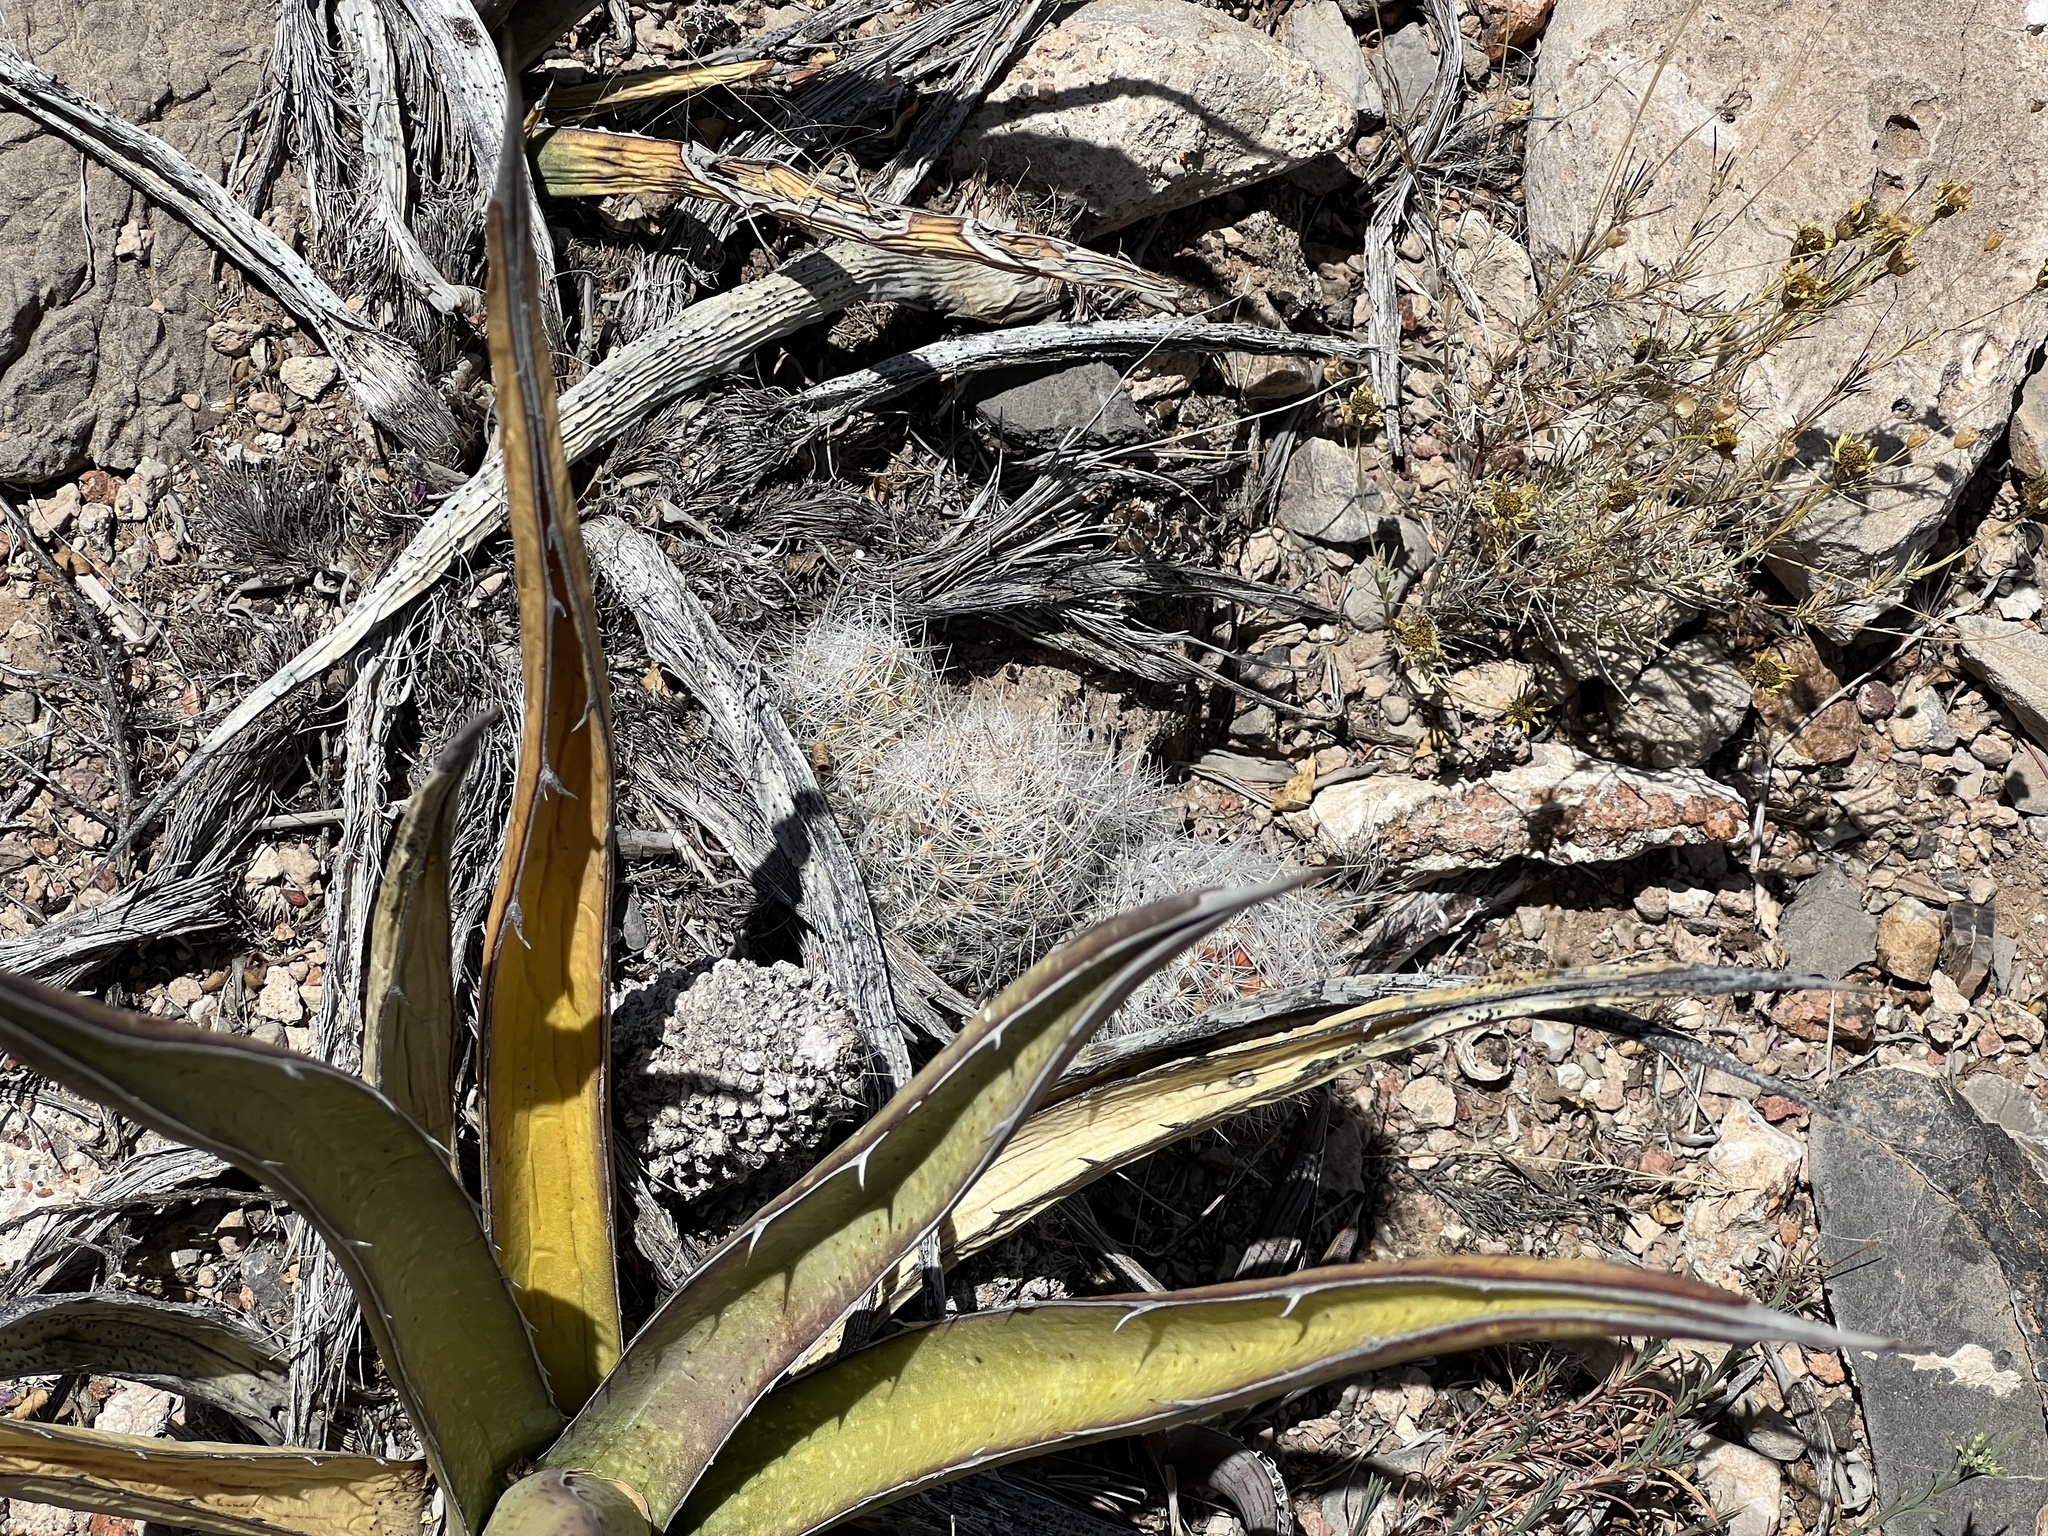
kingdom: Plantae
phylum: Tracheophyta
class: Magnoliopsida
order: Caryophyllales
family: Cactaceae
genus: Pelecyphora
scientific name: Pelecyphora tuberculosa
